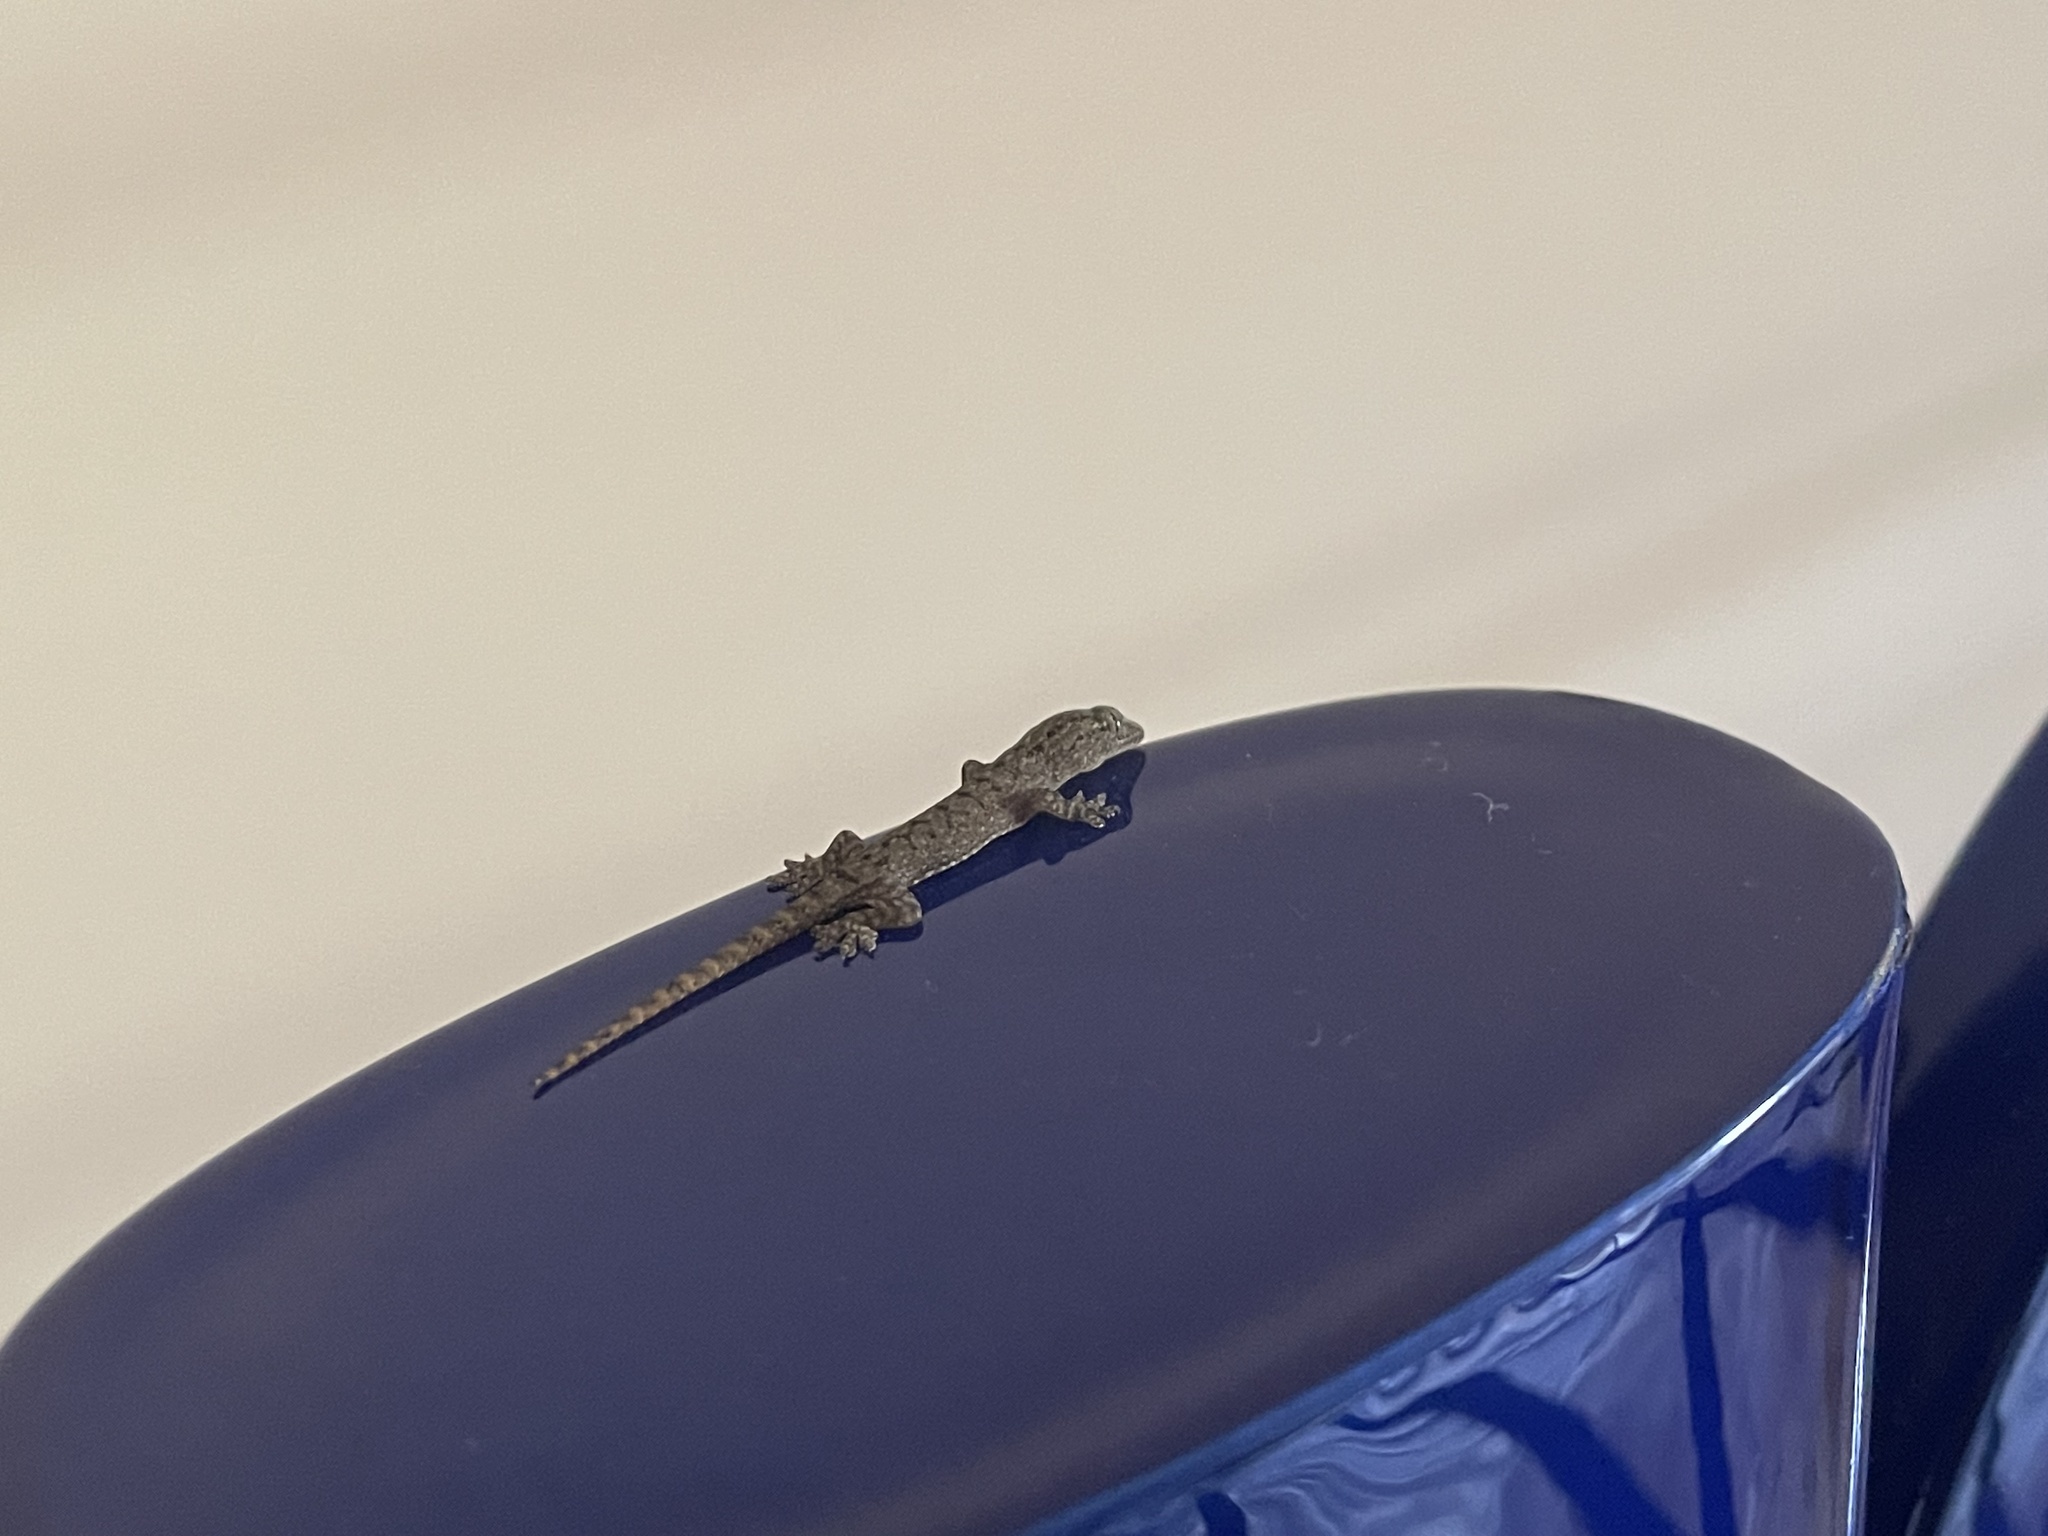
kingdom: Animalia
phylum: Chordata
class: Squamata
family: Gekkonidae
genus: Hemidactylus
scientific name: Hemidactylus frenatus
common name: Common house gecko
